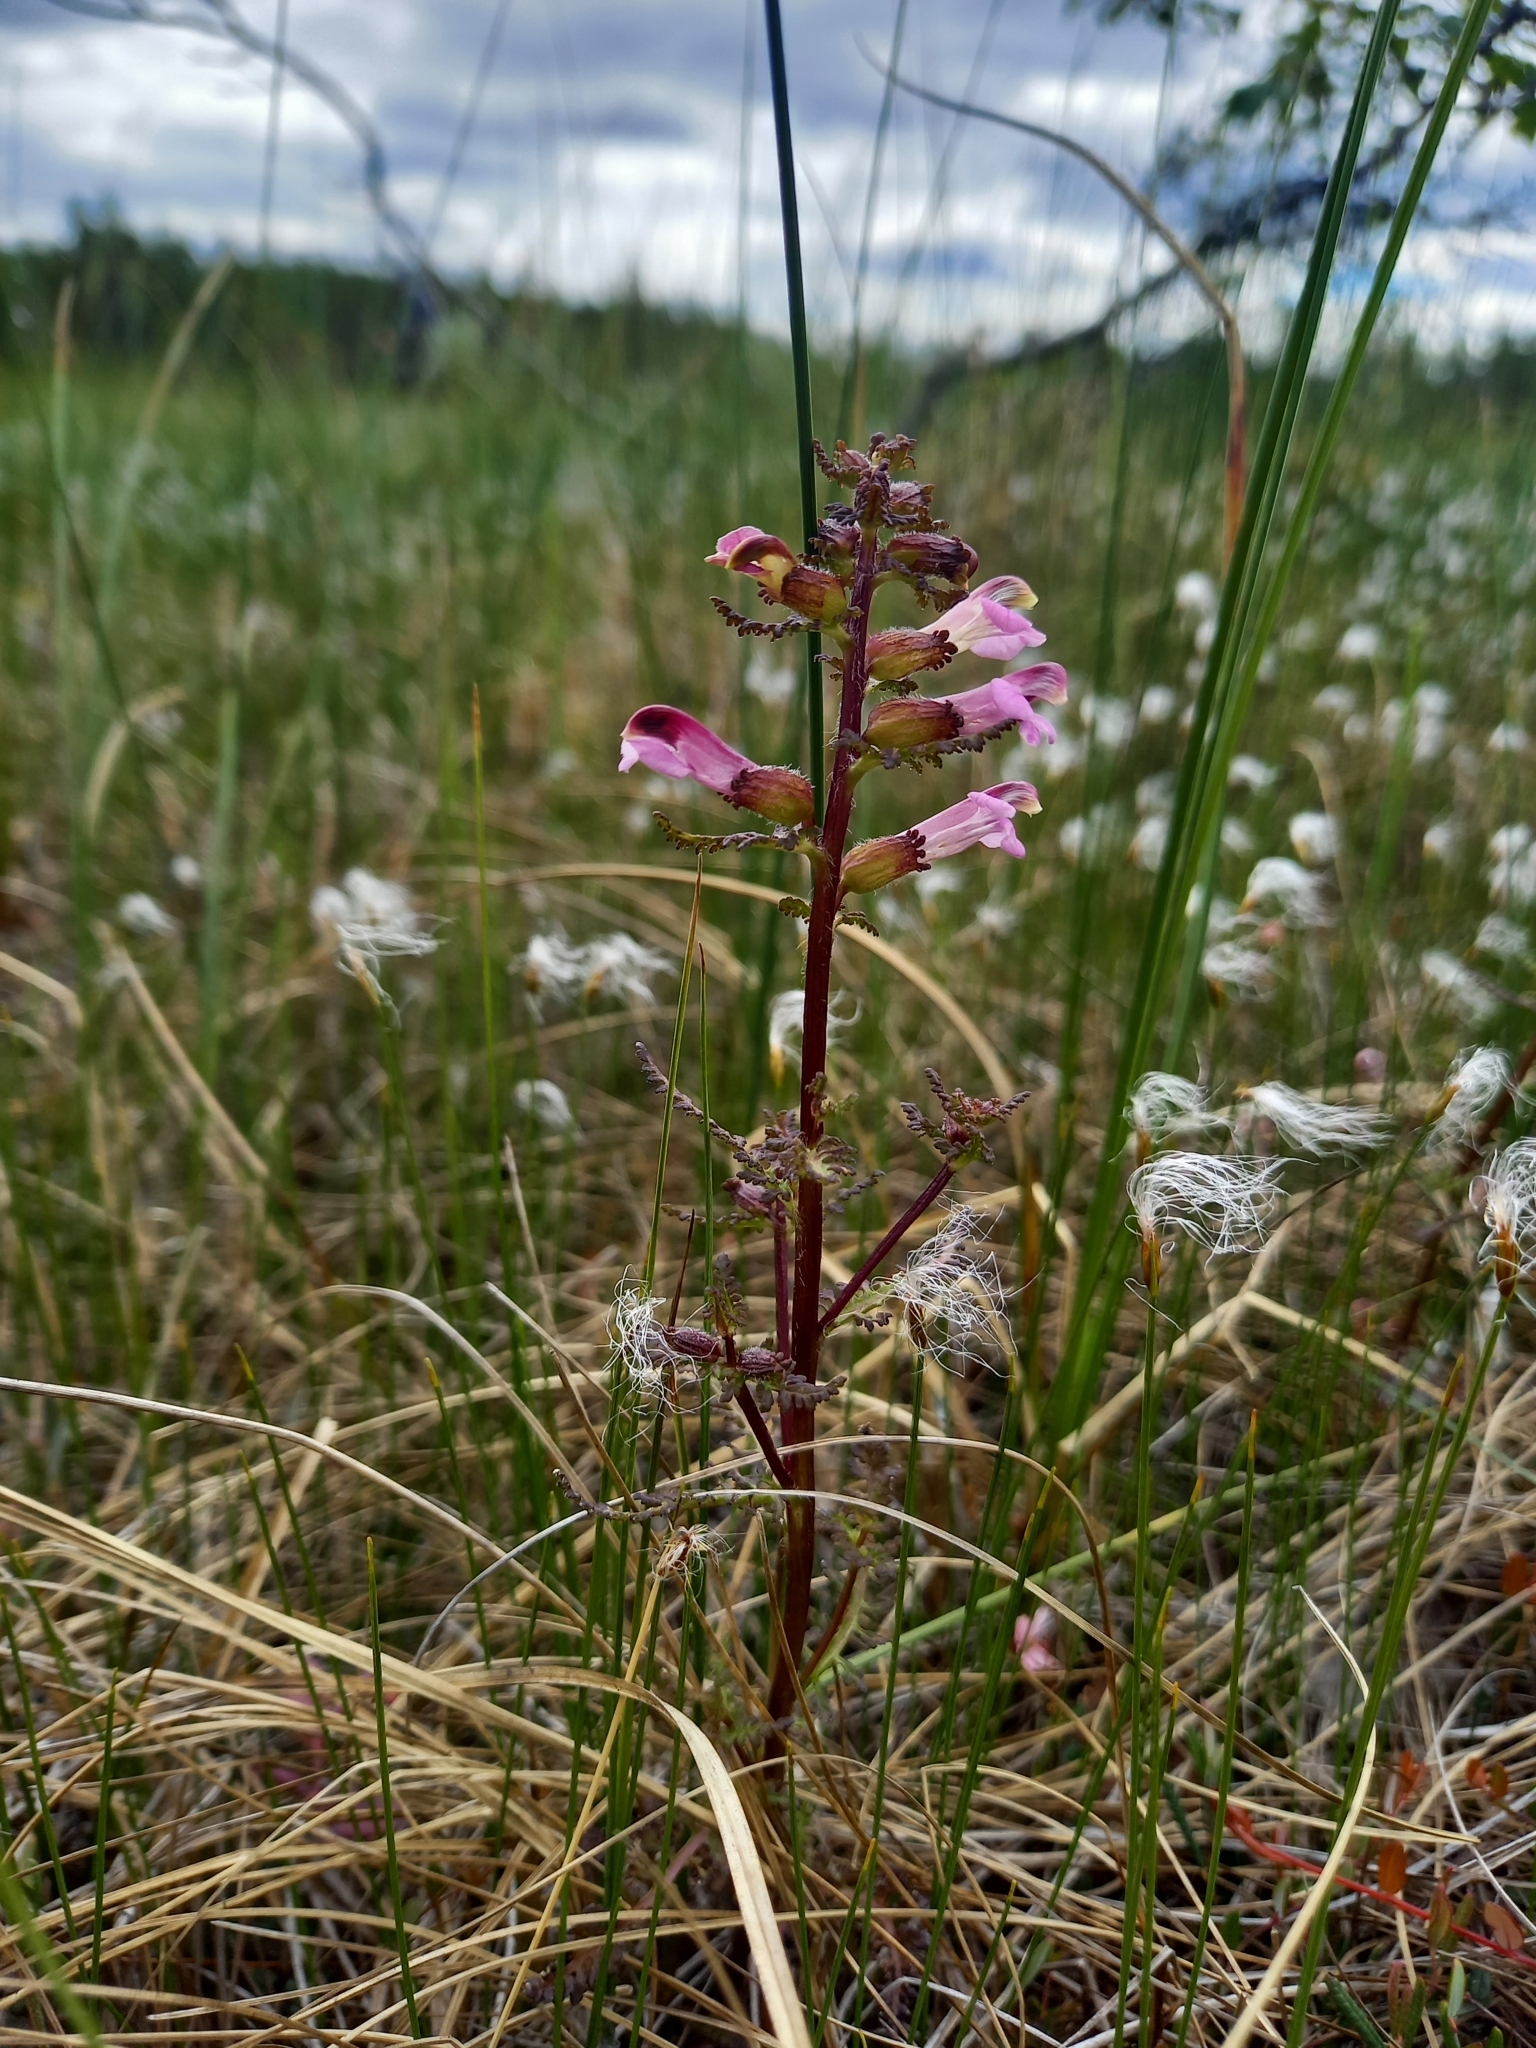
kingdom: Plantae
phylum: Tracheophyta
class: Magnoliopsida
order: Lamiales
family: Orobanchaceae
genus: Pedicularis
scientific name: Pedicularis palustris
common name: Marsh lousewort
